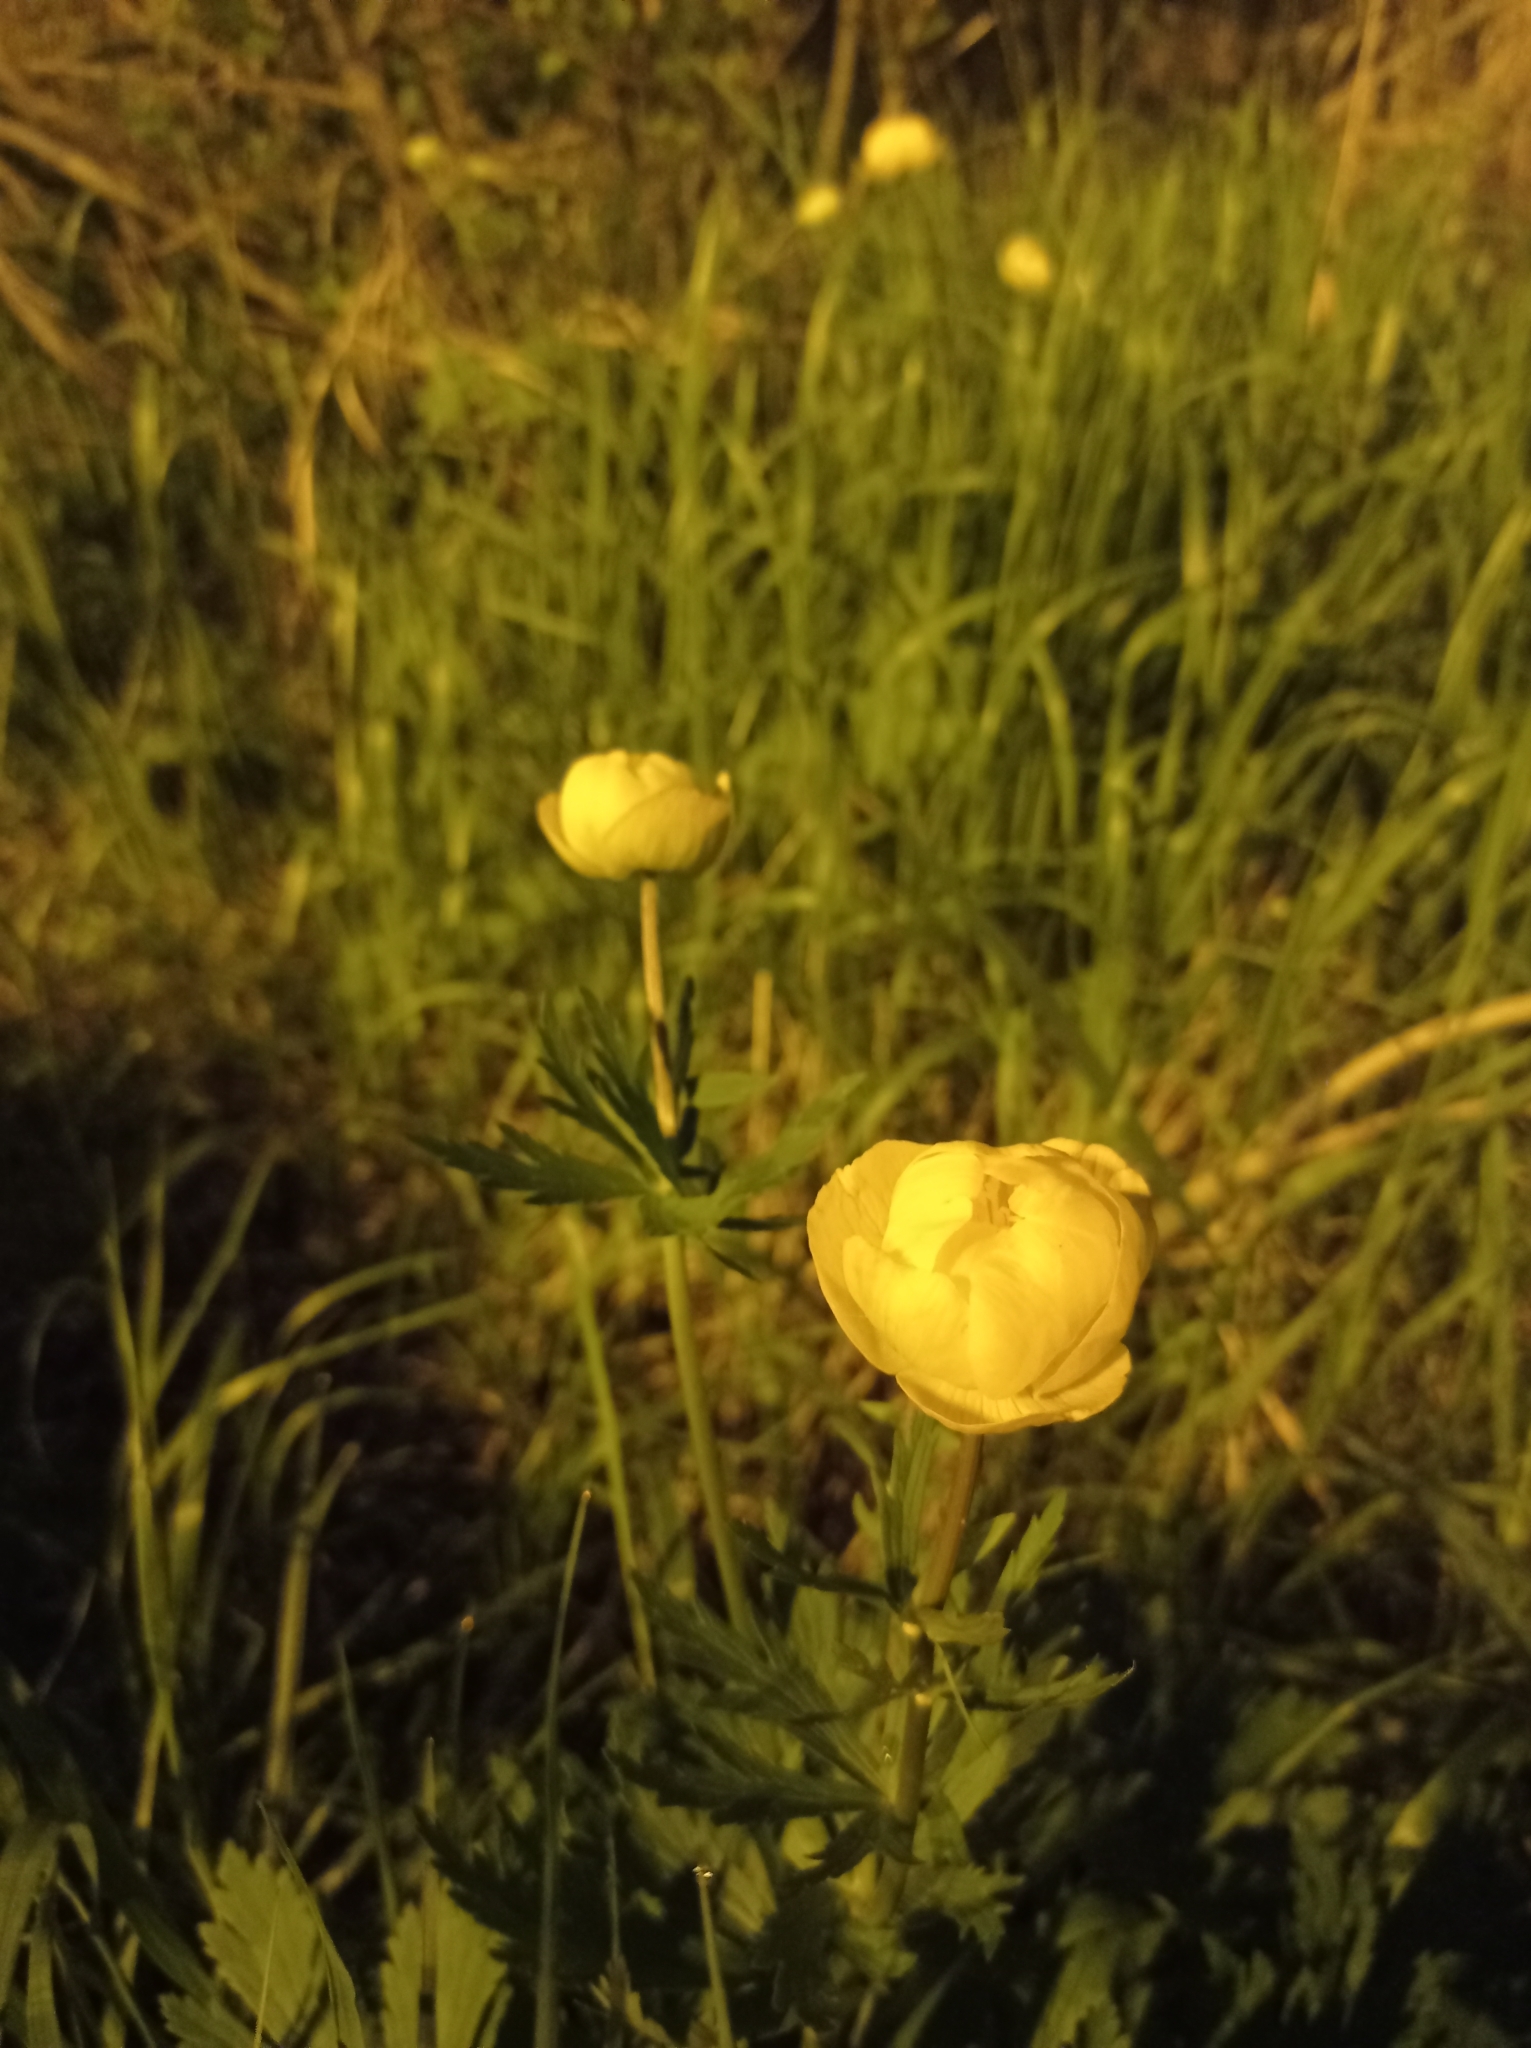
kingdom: Plantae
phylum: Tracheophyta
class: Magnoliopsida
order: Ranunculales
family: Ranunculaceae
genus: Trollius
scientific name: Trollius europaeus
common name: European globeflower
